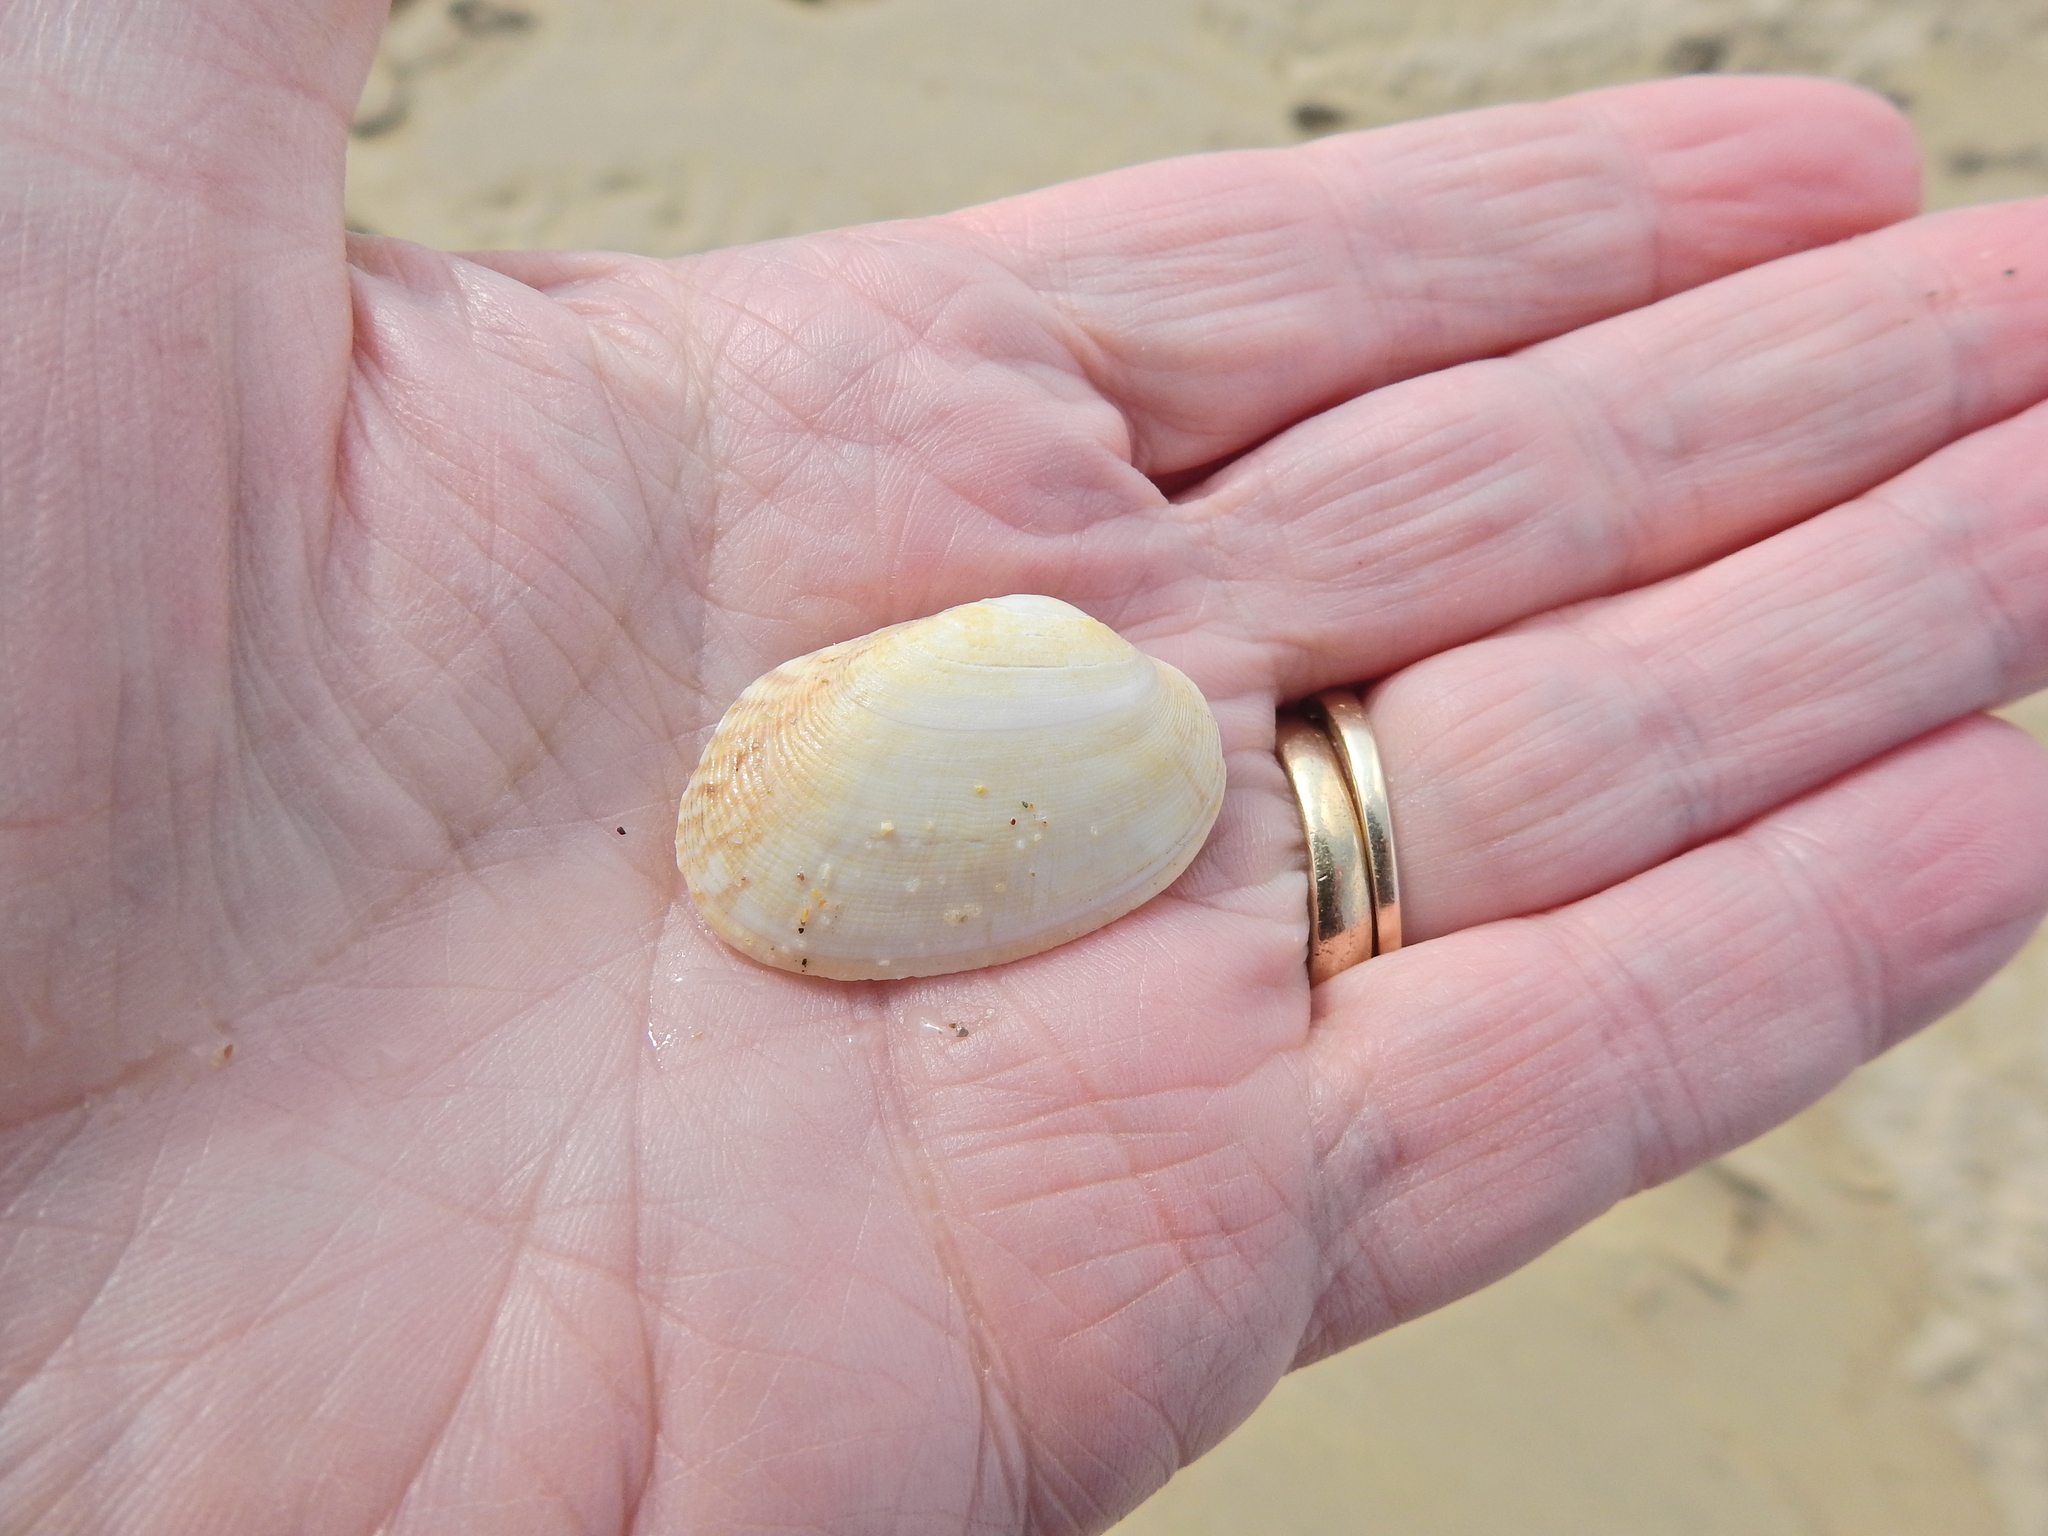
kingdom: Animalia
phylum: Mollusca
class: Bivalvia
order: Venerida
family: Veneridae
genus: Venerupis
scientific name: Venerupis corrugata
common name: Pullet carpet shell
